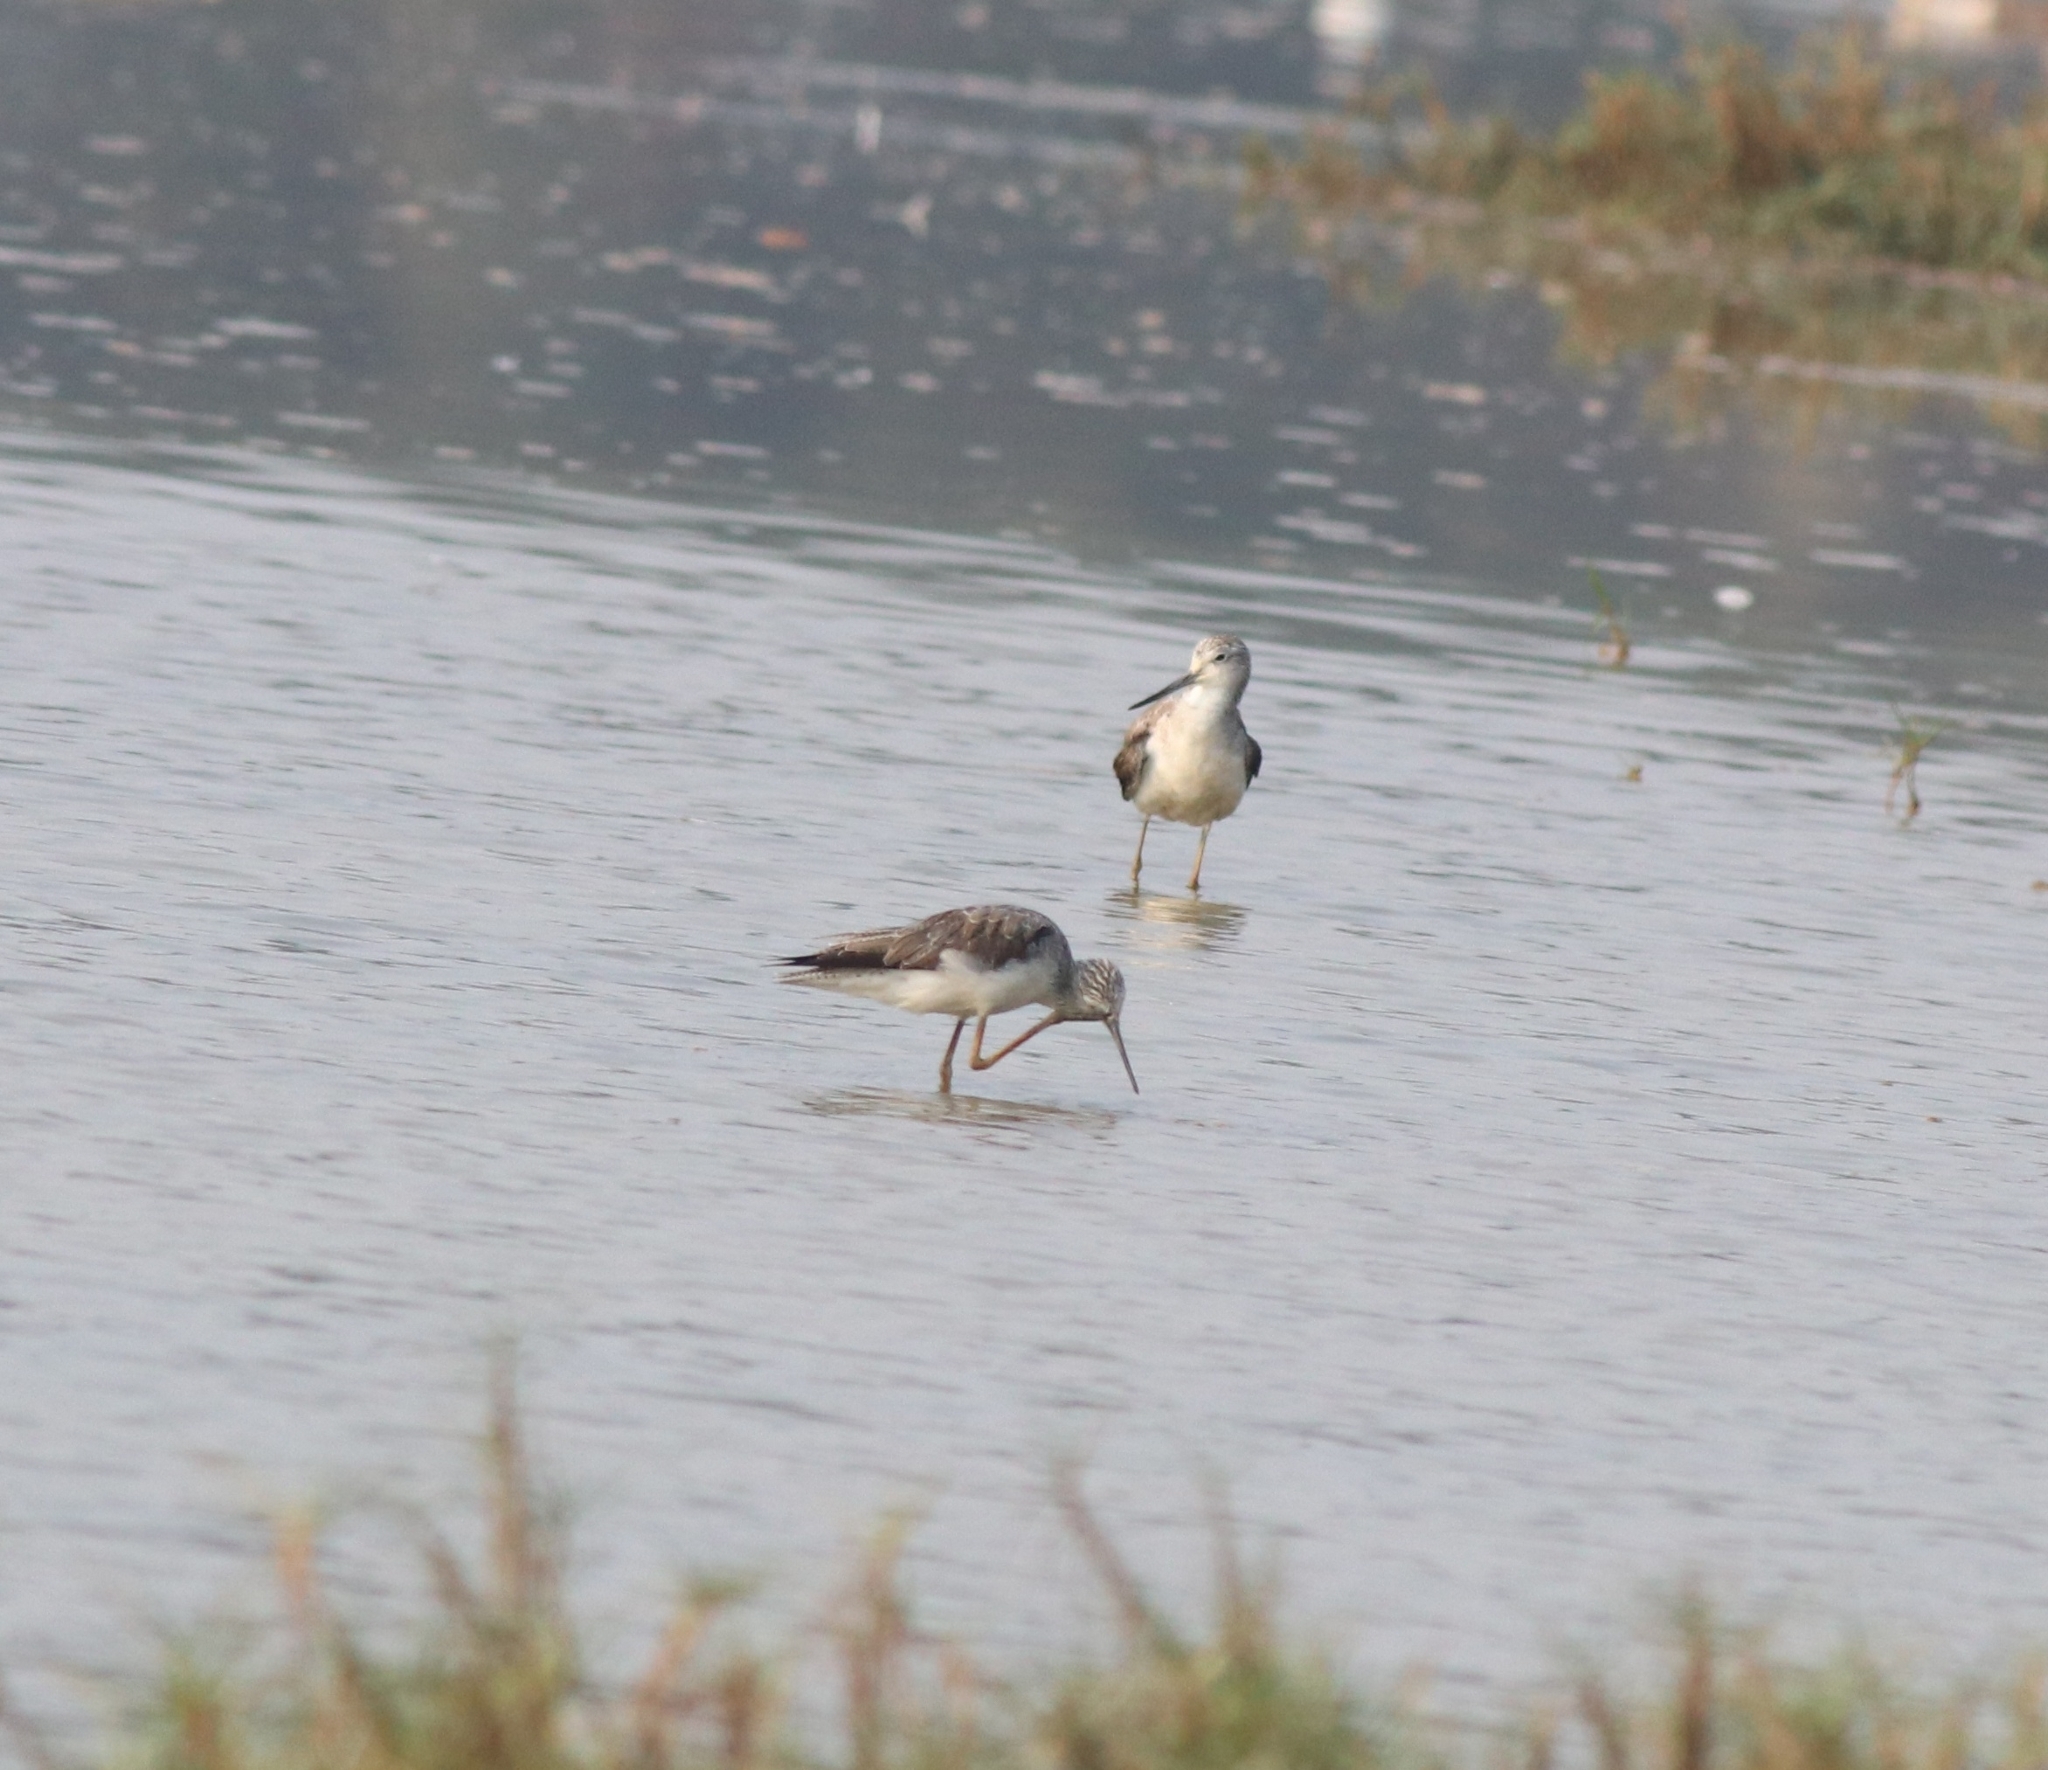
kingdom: Animalia
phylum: Chordata
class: Aves
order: Charadriiformes
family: Scolopacidae
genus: Tringa
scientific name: Tringa nebularia
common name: Common greenshank
